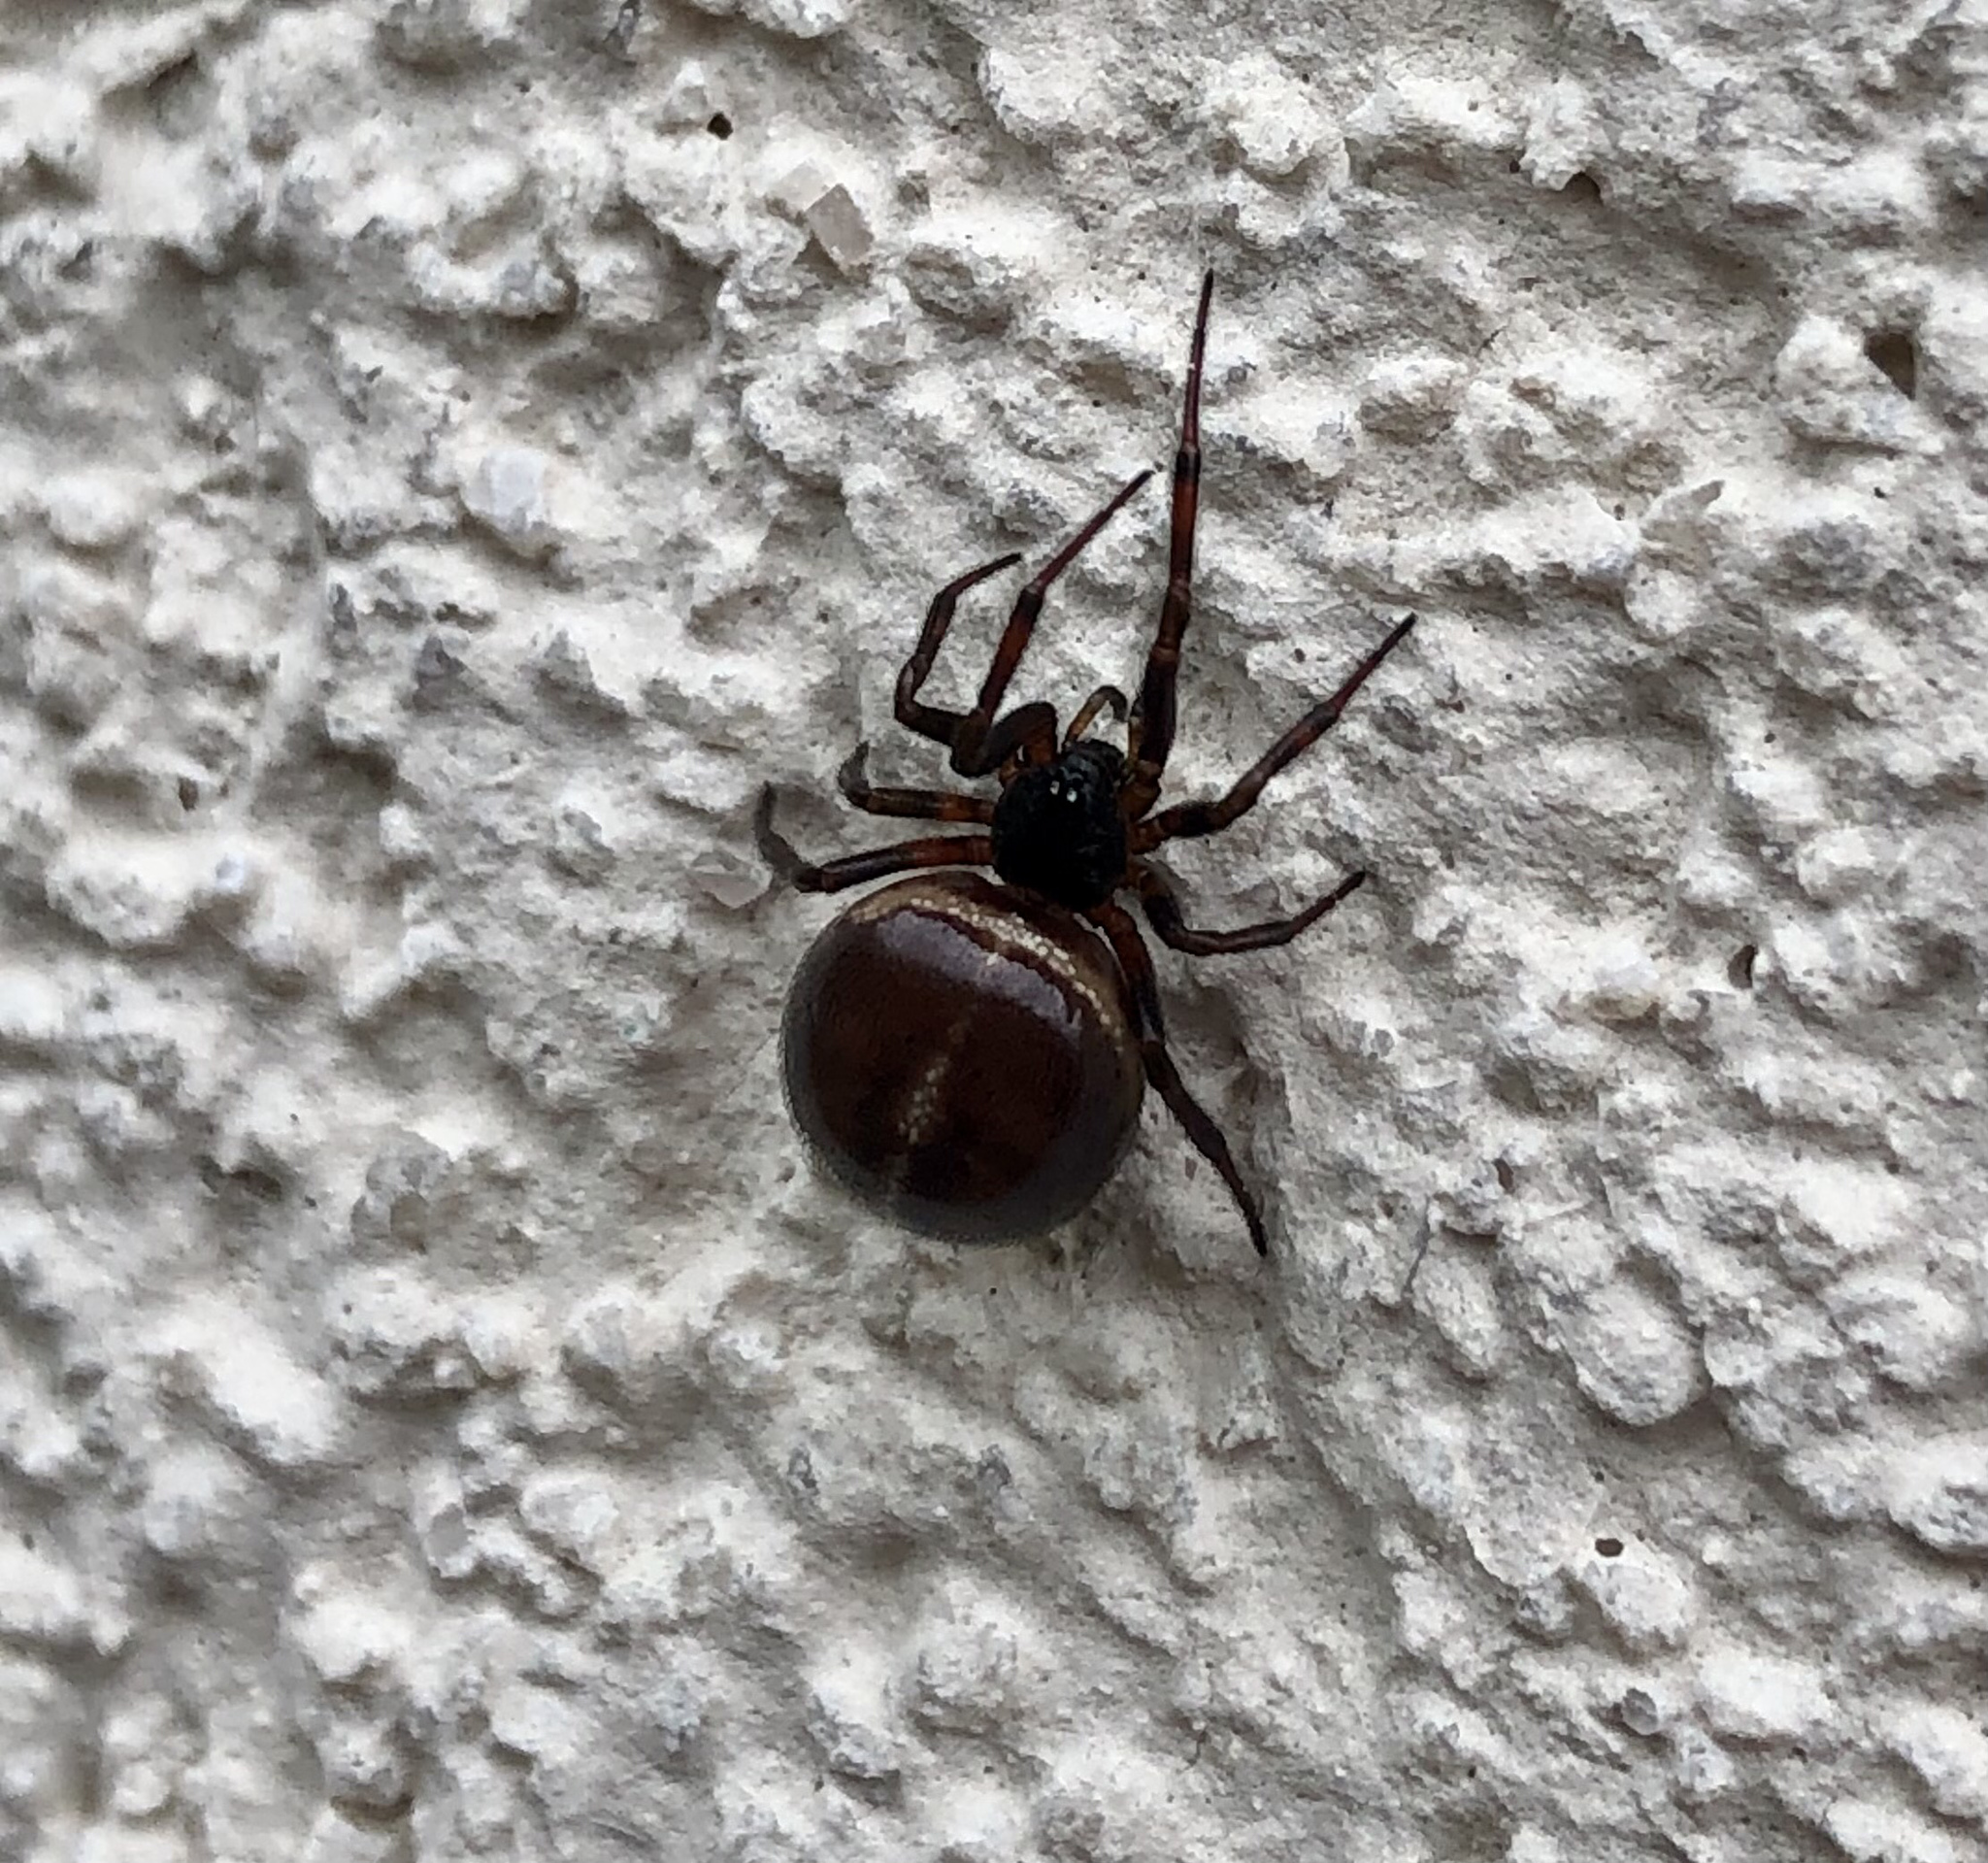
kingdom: Animalia
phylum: Arthropoda
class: Arachnida
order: Araneae
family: Theridiidae
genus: Steatoda
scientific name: Steatoda bipunctata
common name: False widow
